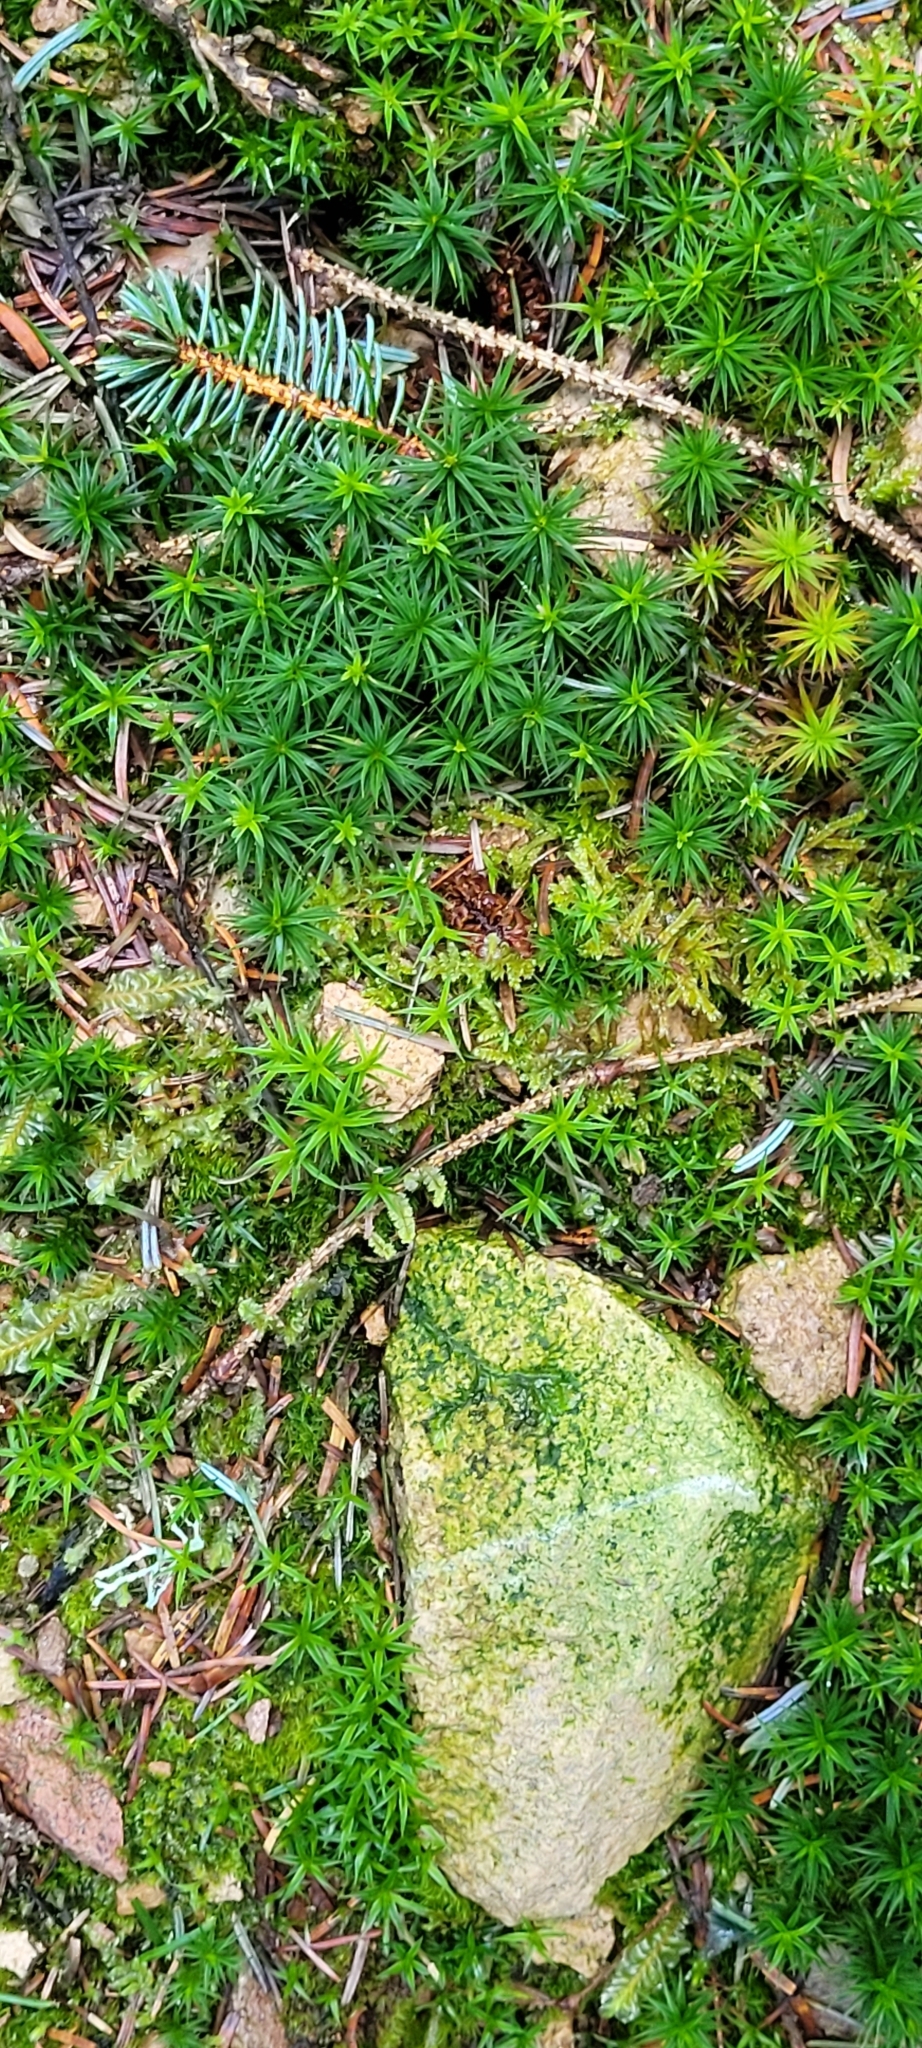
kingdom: Plantae
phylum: Bryophyta
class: Polytrichopsida
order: Polytrichales
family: Polytrichaceae
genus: Polytrichum
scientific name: Polytrichum formosum
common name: Bank haircap moss
